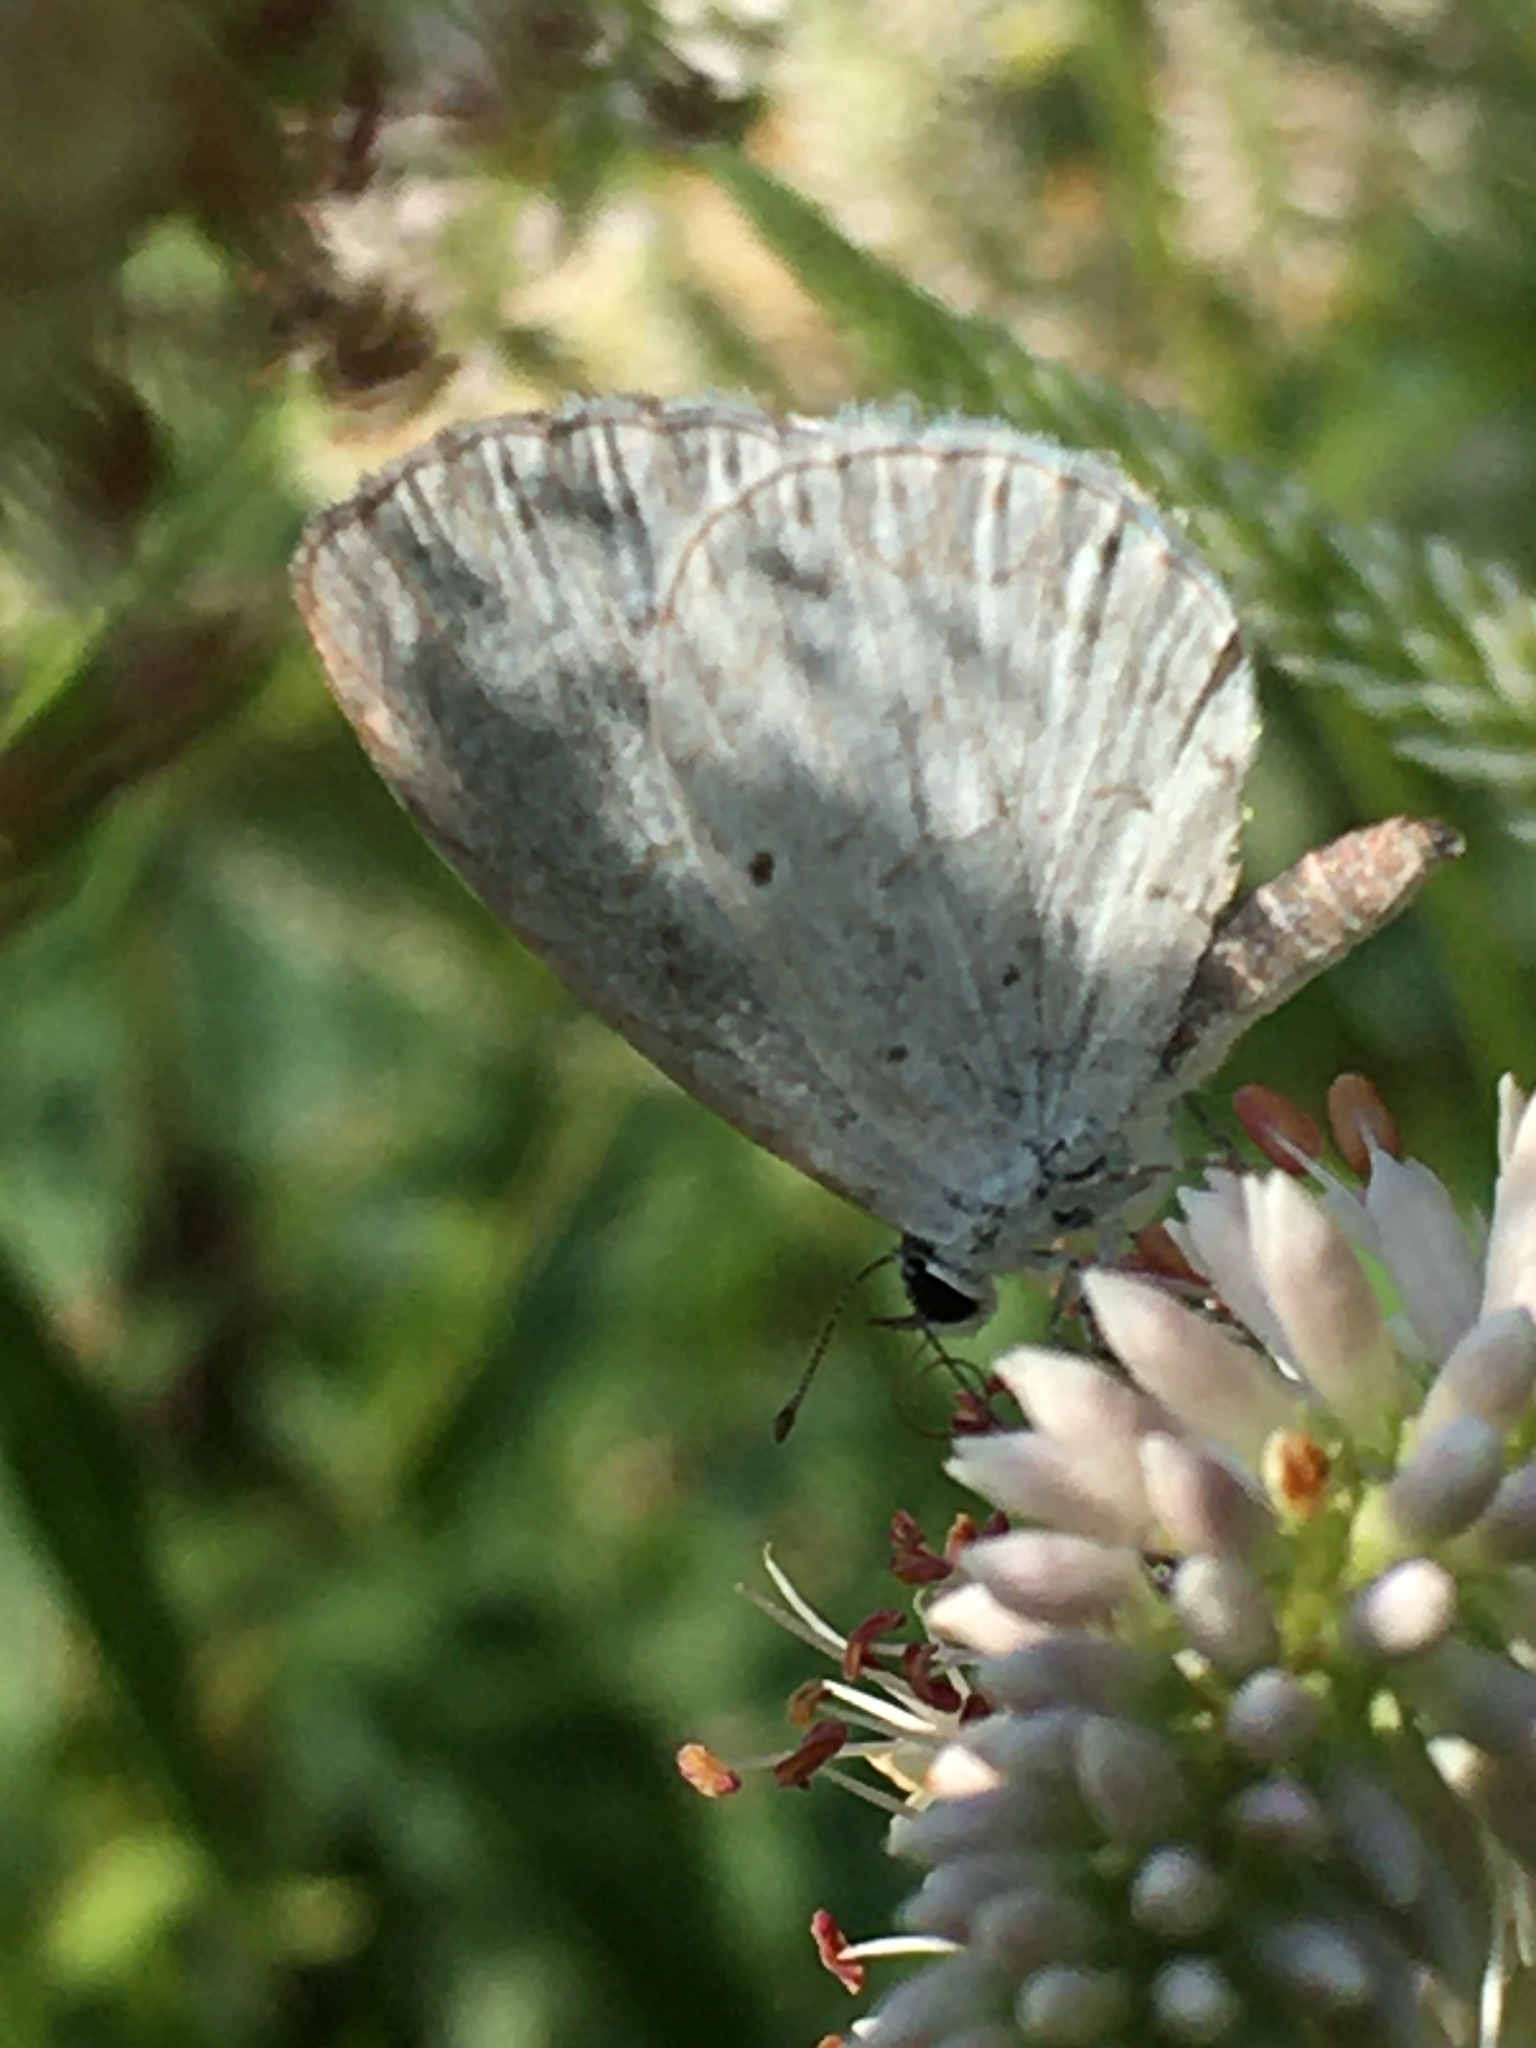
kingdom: Animalia
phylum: Arthropoda
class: Insecta
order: Lepidoptera
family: Lycaenidae
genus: Cyaniris
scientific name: Cyaniris neglecta
